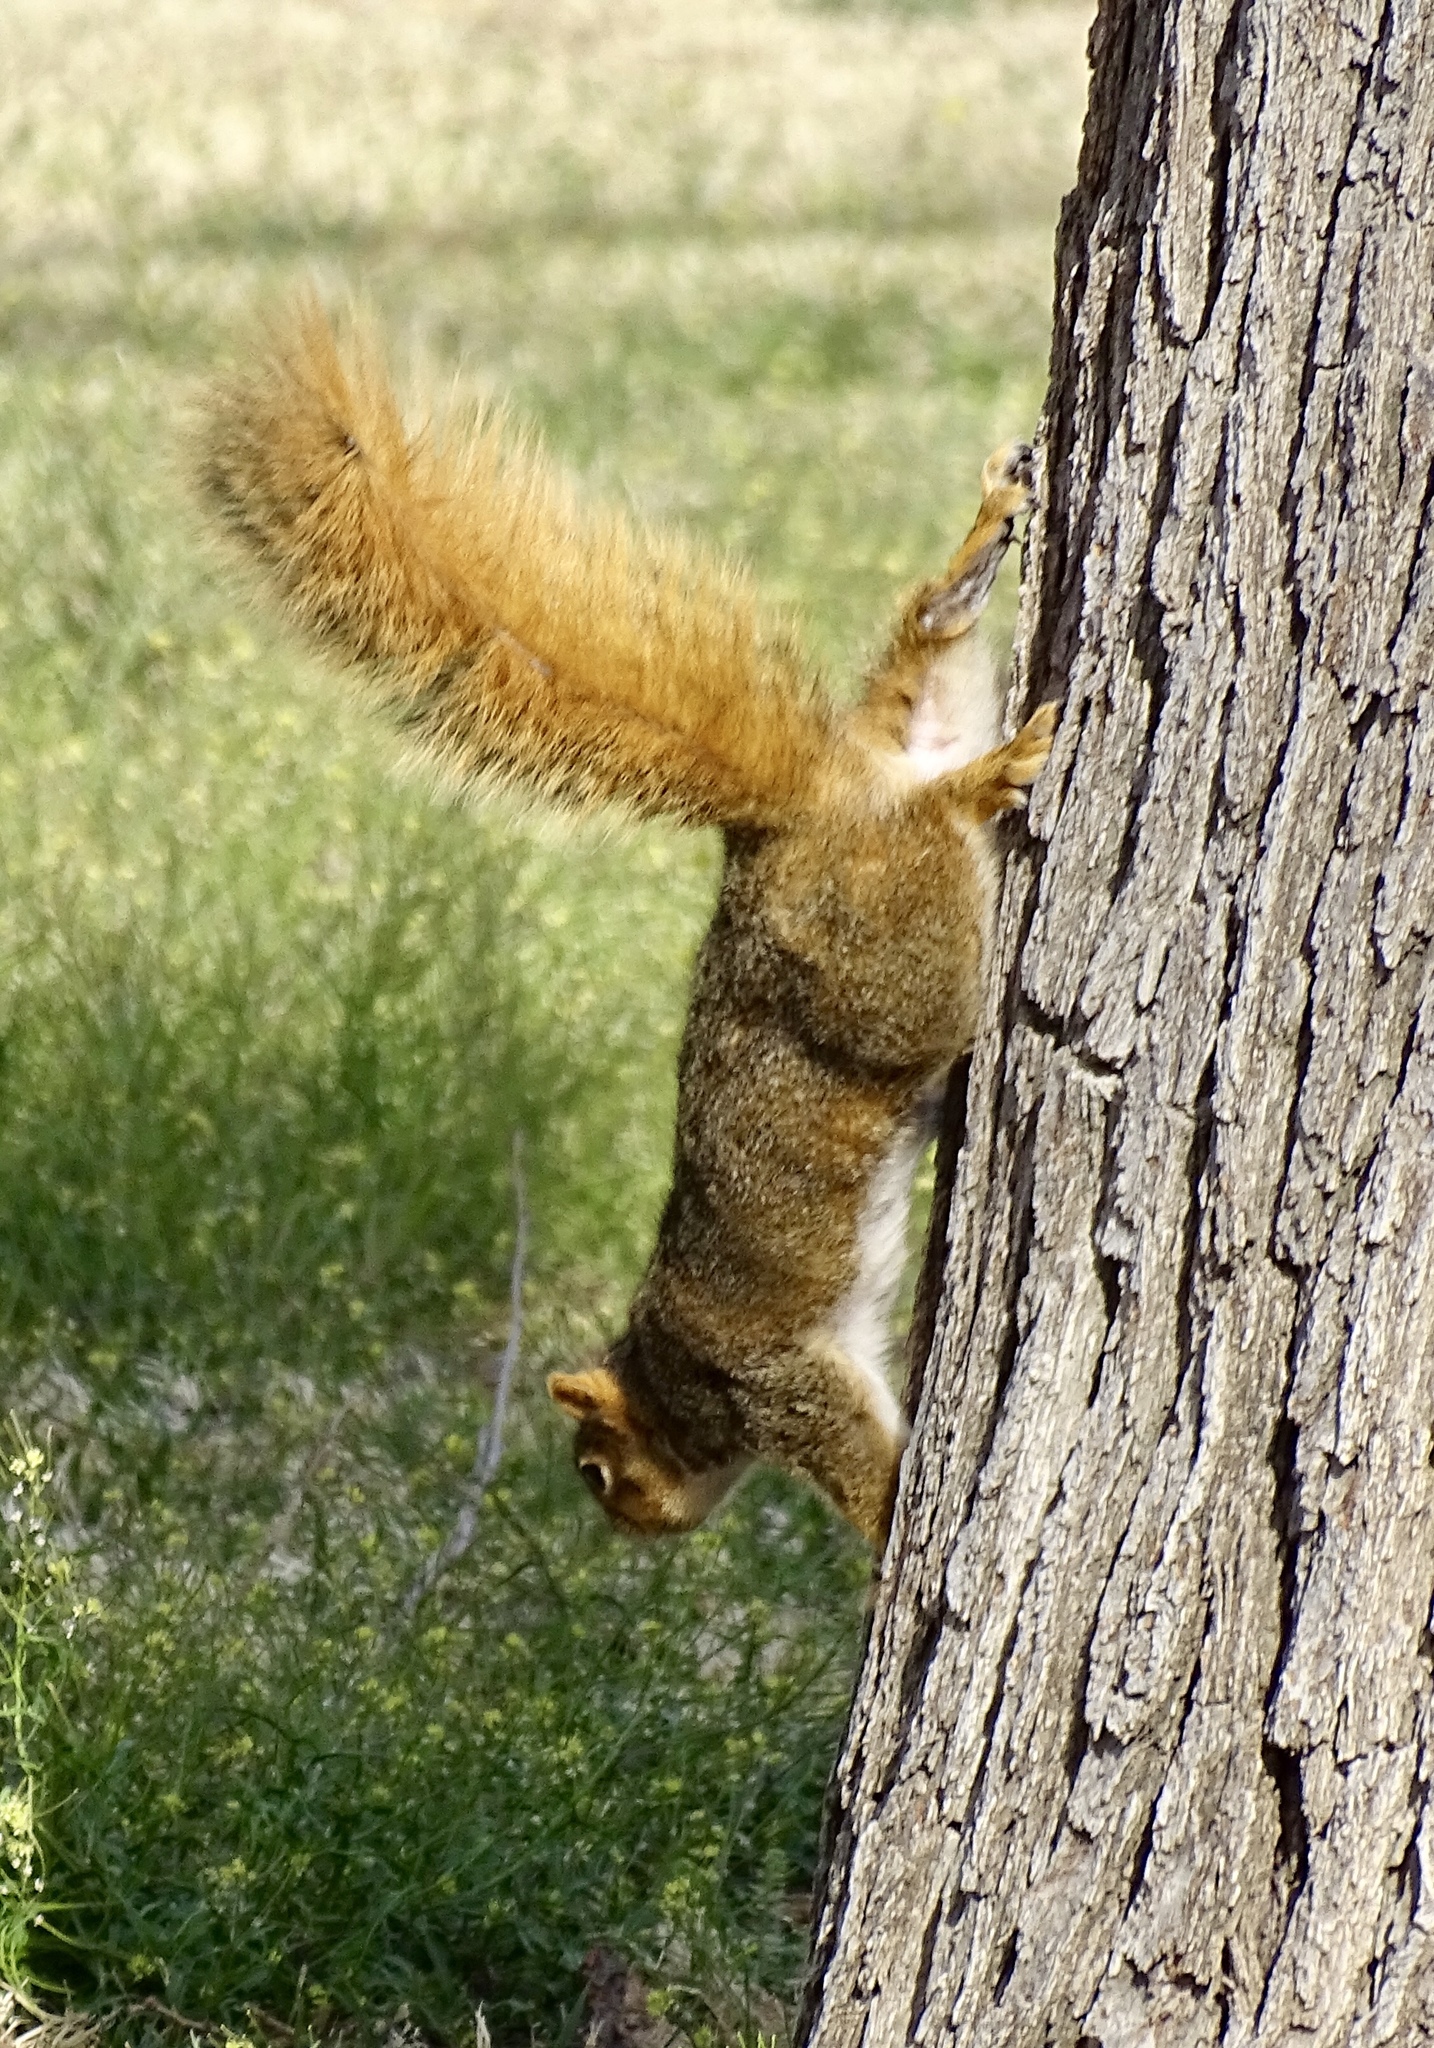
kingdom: Animalia
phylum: Chordata
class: Mammalia
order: Rodentia
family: Sciuridae
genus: Sciurus
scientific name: Sciurus niger
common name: Fox squirrel
